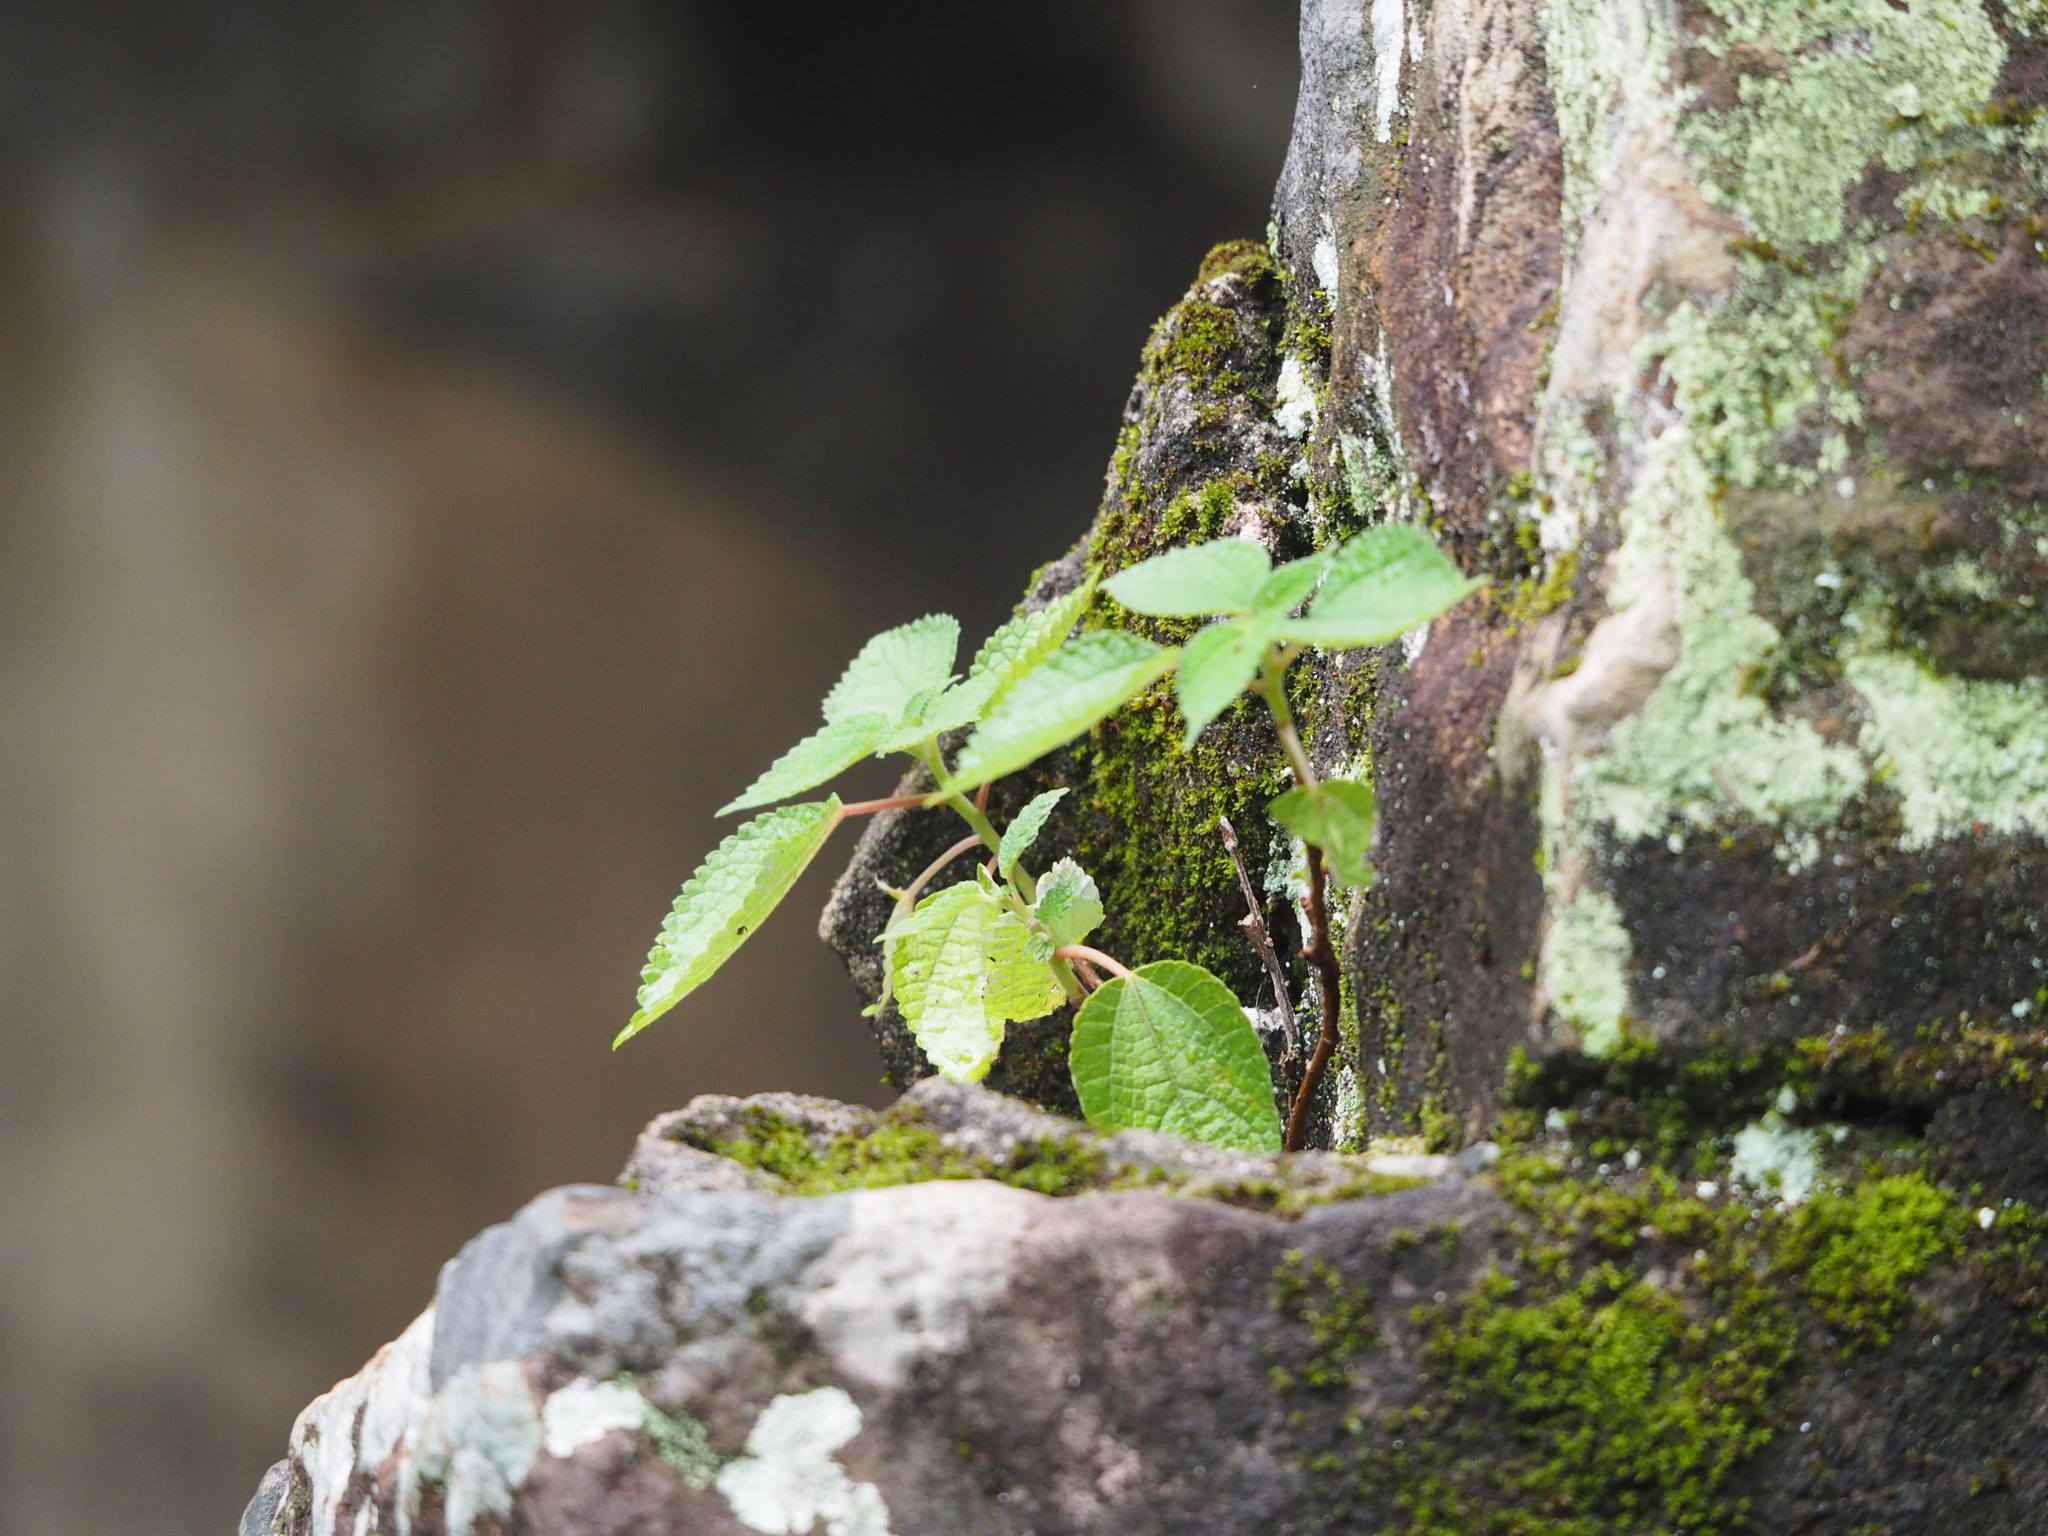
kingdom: Plantae
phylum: Tracheophyta
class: Magnoliopsida
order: Rosales
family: Urticaceae
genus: Boehmeria
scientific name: Boehmeria nivea
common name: Ramie chinese grass
